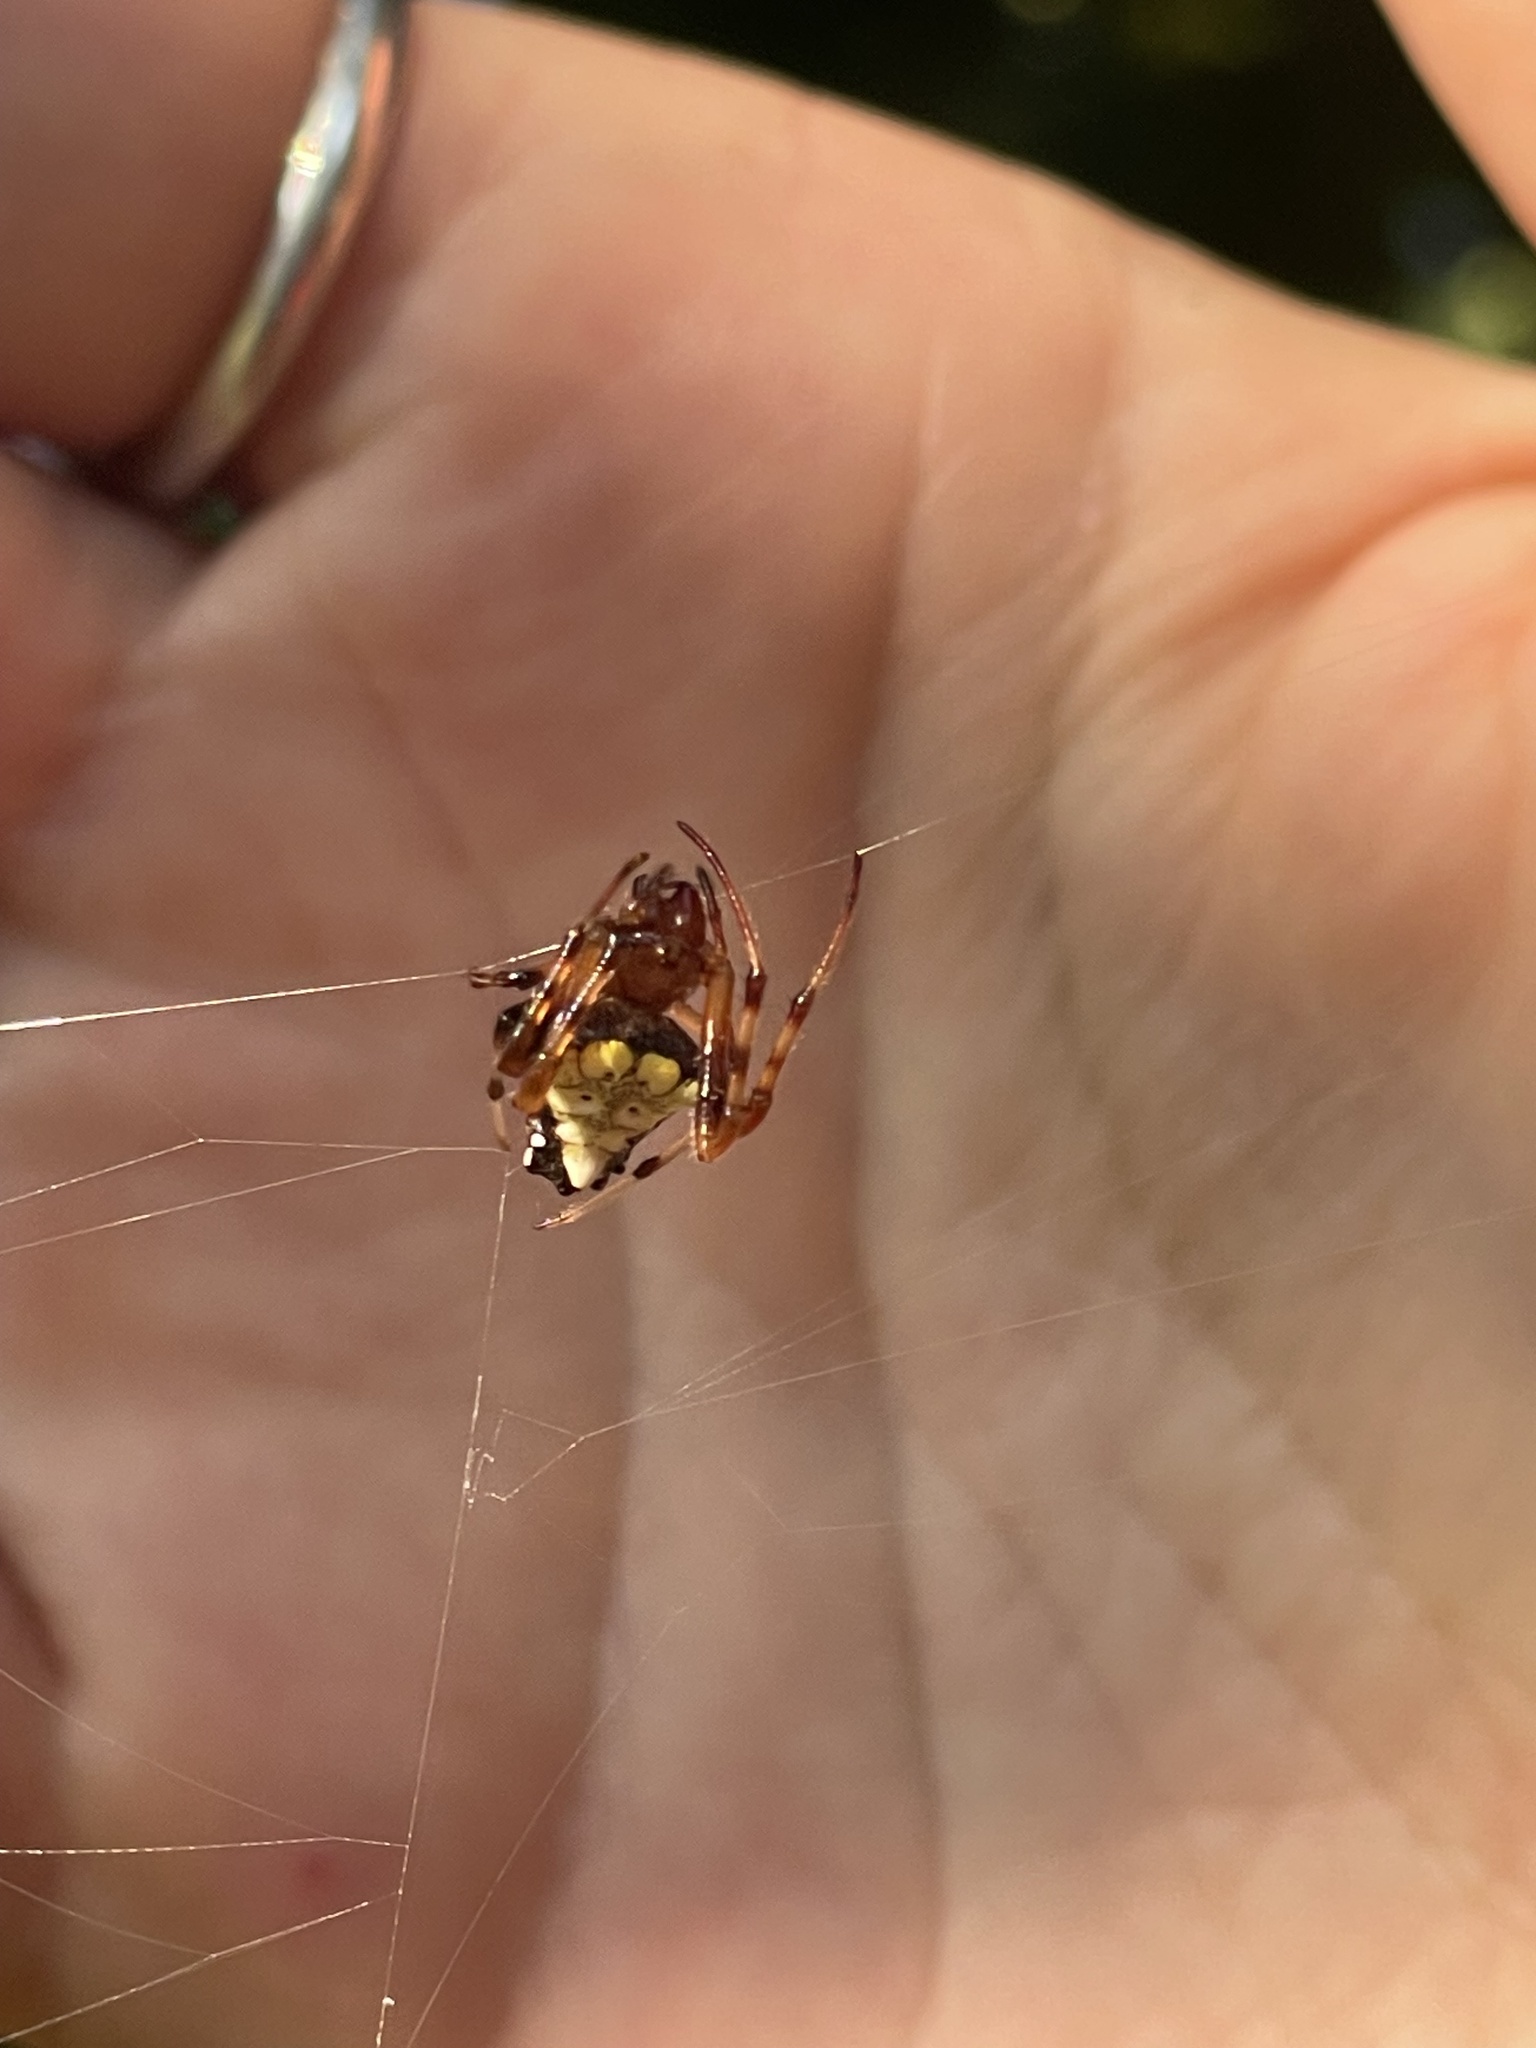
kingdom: Animalia
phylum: Arthropoda
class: Arachnida
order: Araneae
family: Araneidae
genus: Verrucosa
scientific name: Verrucosa arenata
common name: Orb weavers
